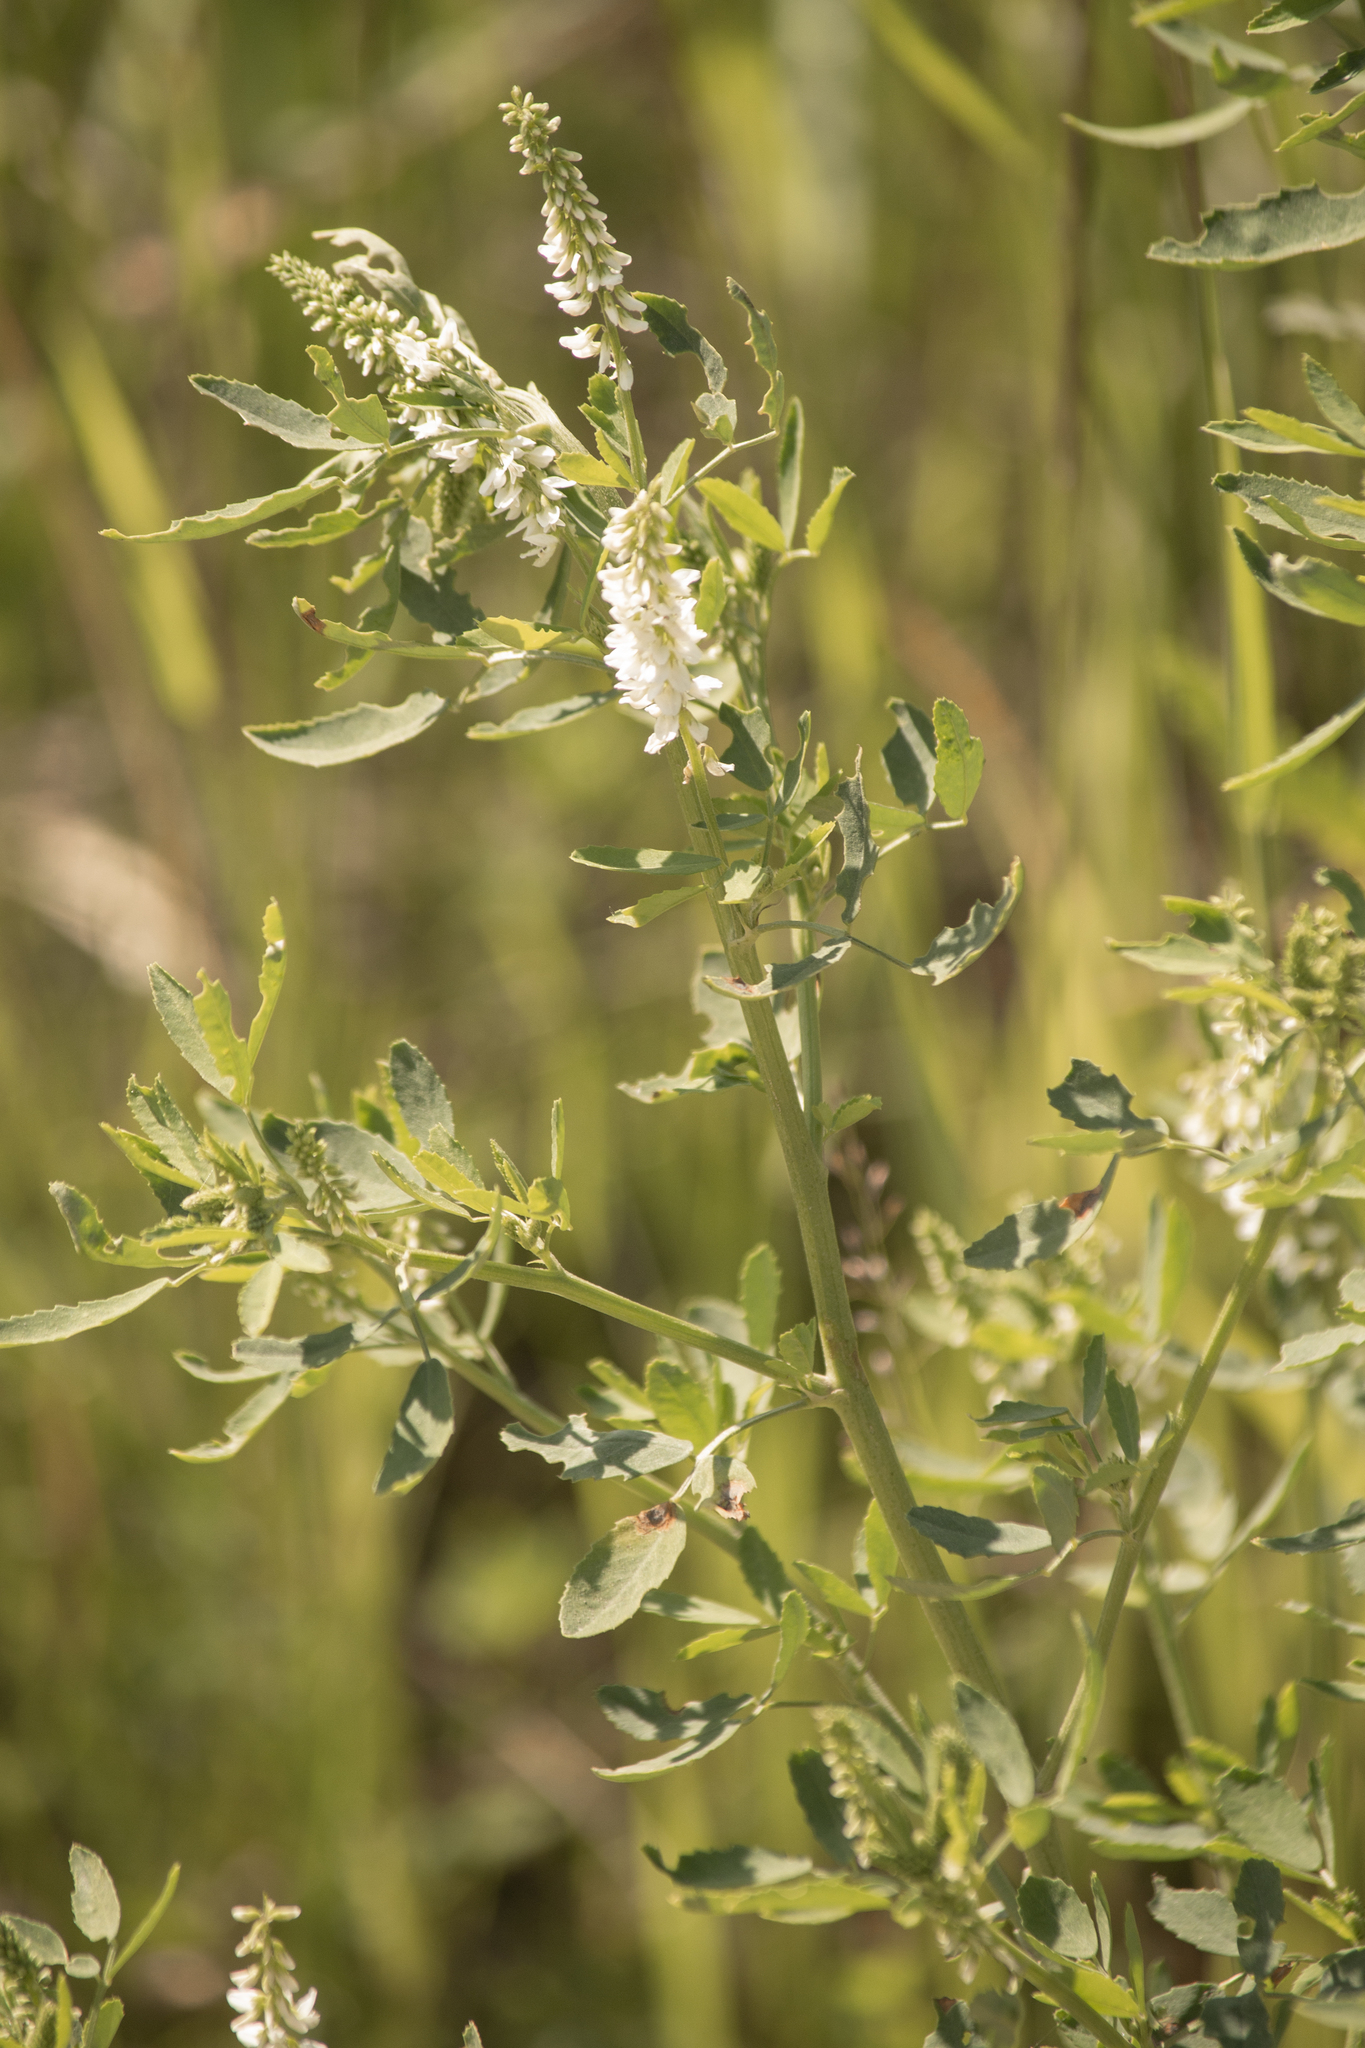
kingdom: Plantae
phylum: Tracheophyta
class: Magnoliopsida
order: Fabales
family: Fabaceae
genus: Melilotus
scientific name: Melilotus albus
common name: White melilot
